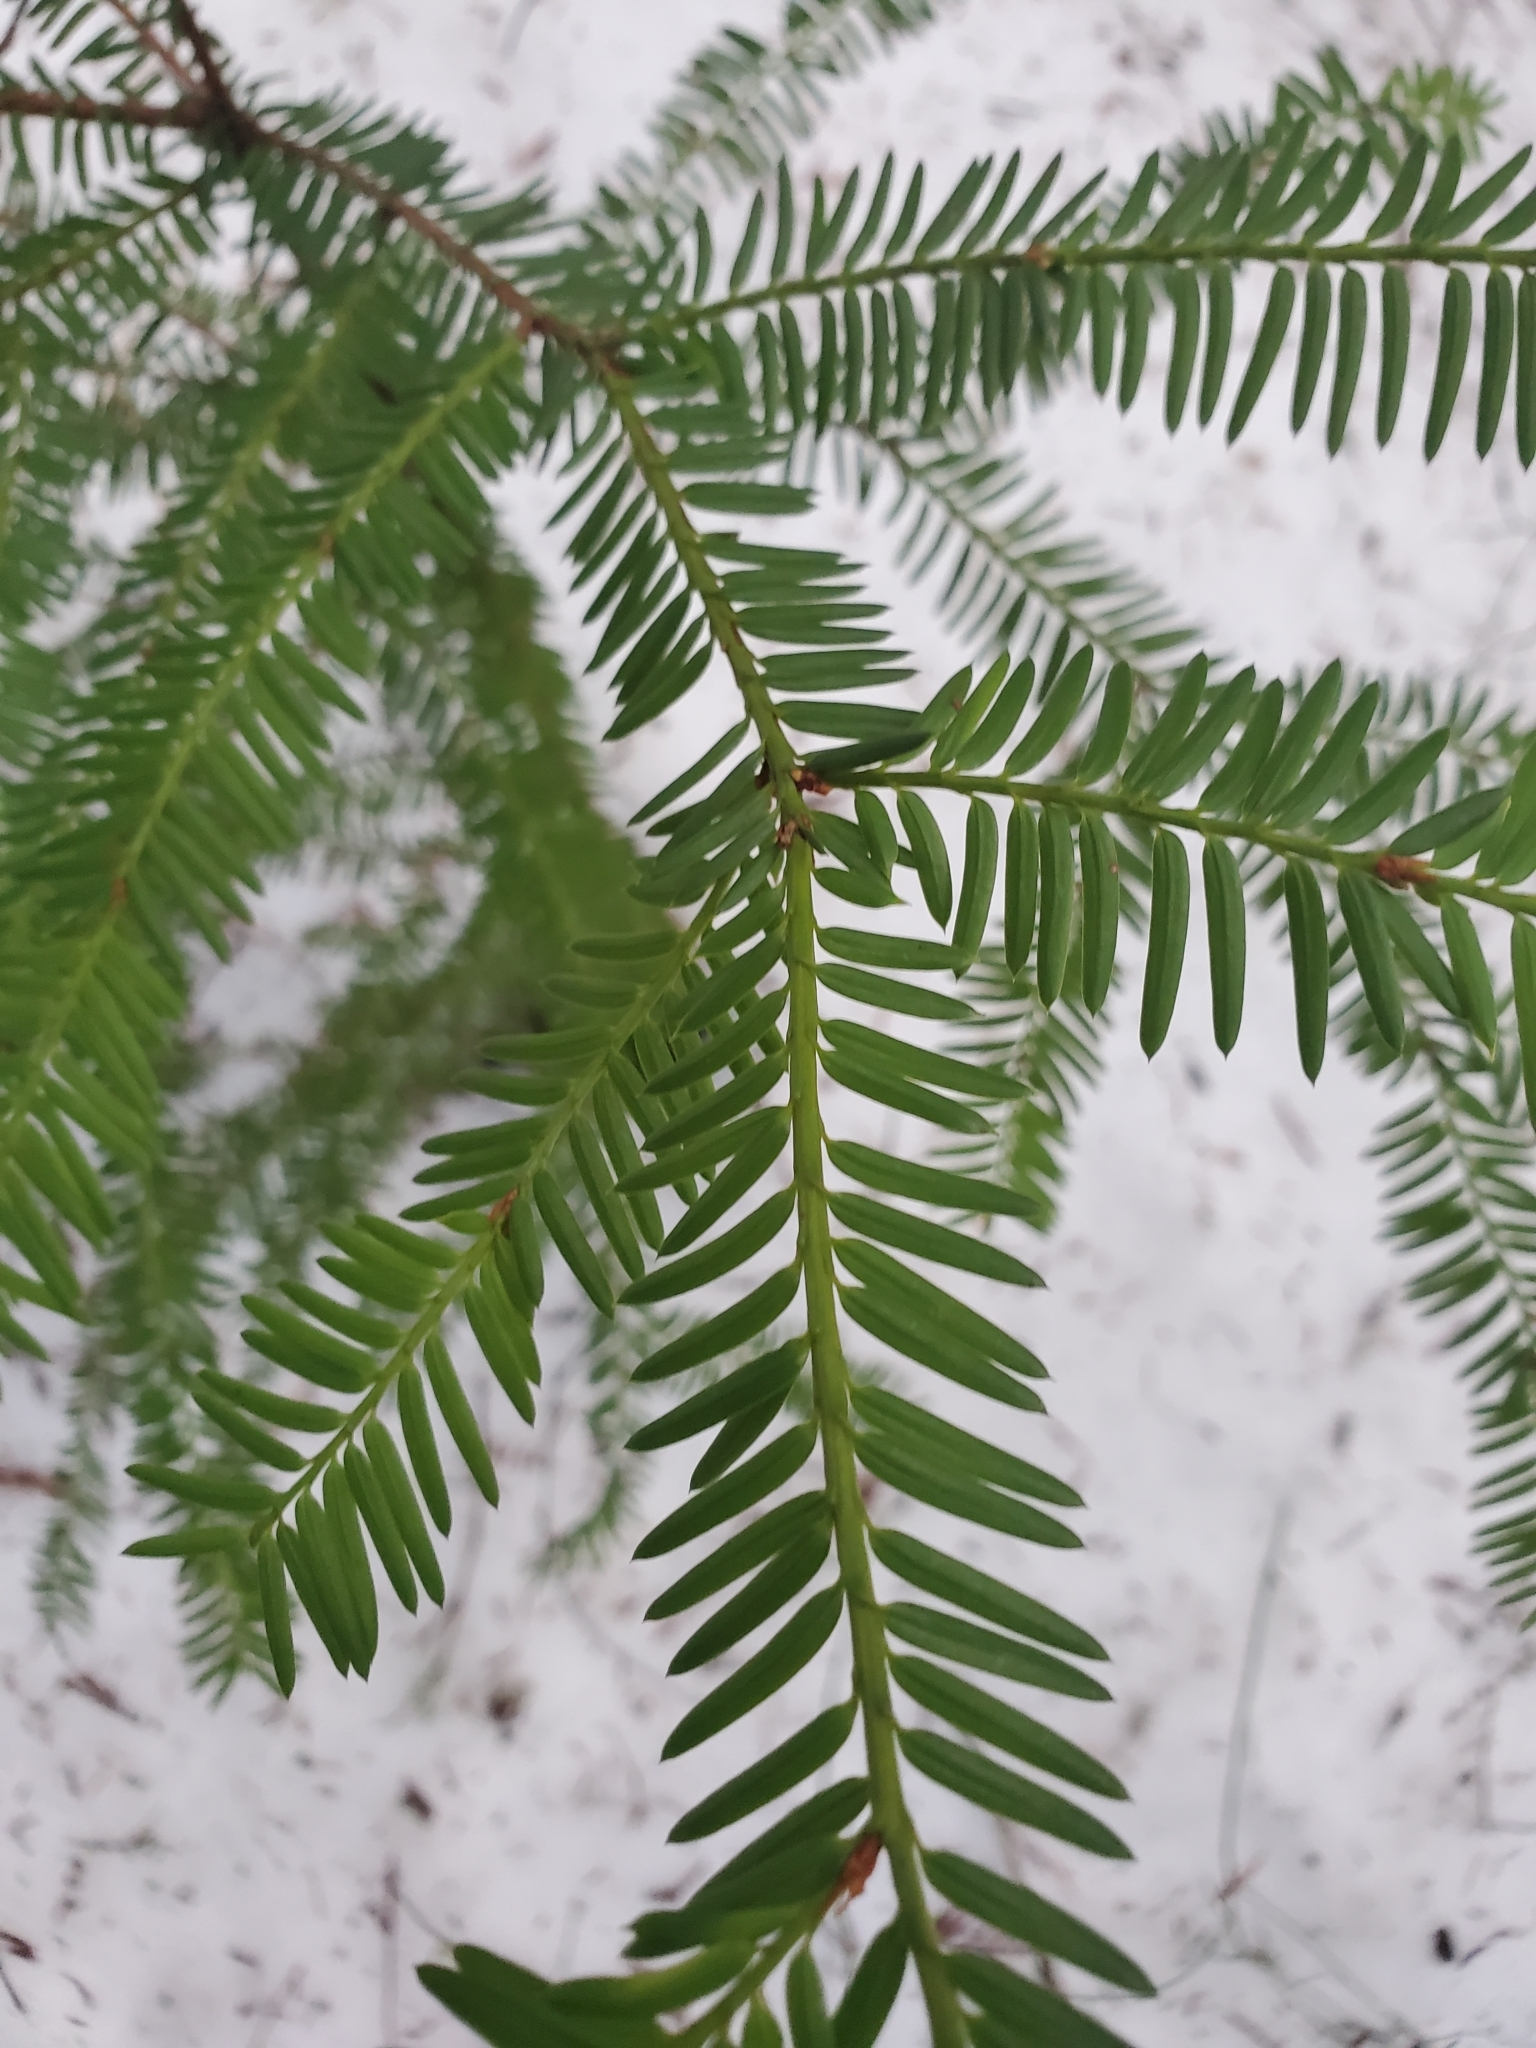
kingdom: Plantae
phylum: Tracheophyta
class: Pinopsida
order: Pinales
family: Taxaceae
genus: Taxus
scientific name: Taxus brevifolia
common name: Pacific yew
